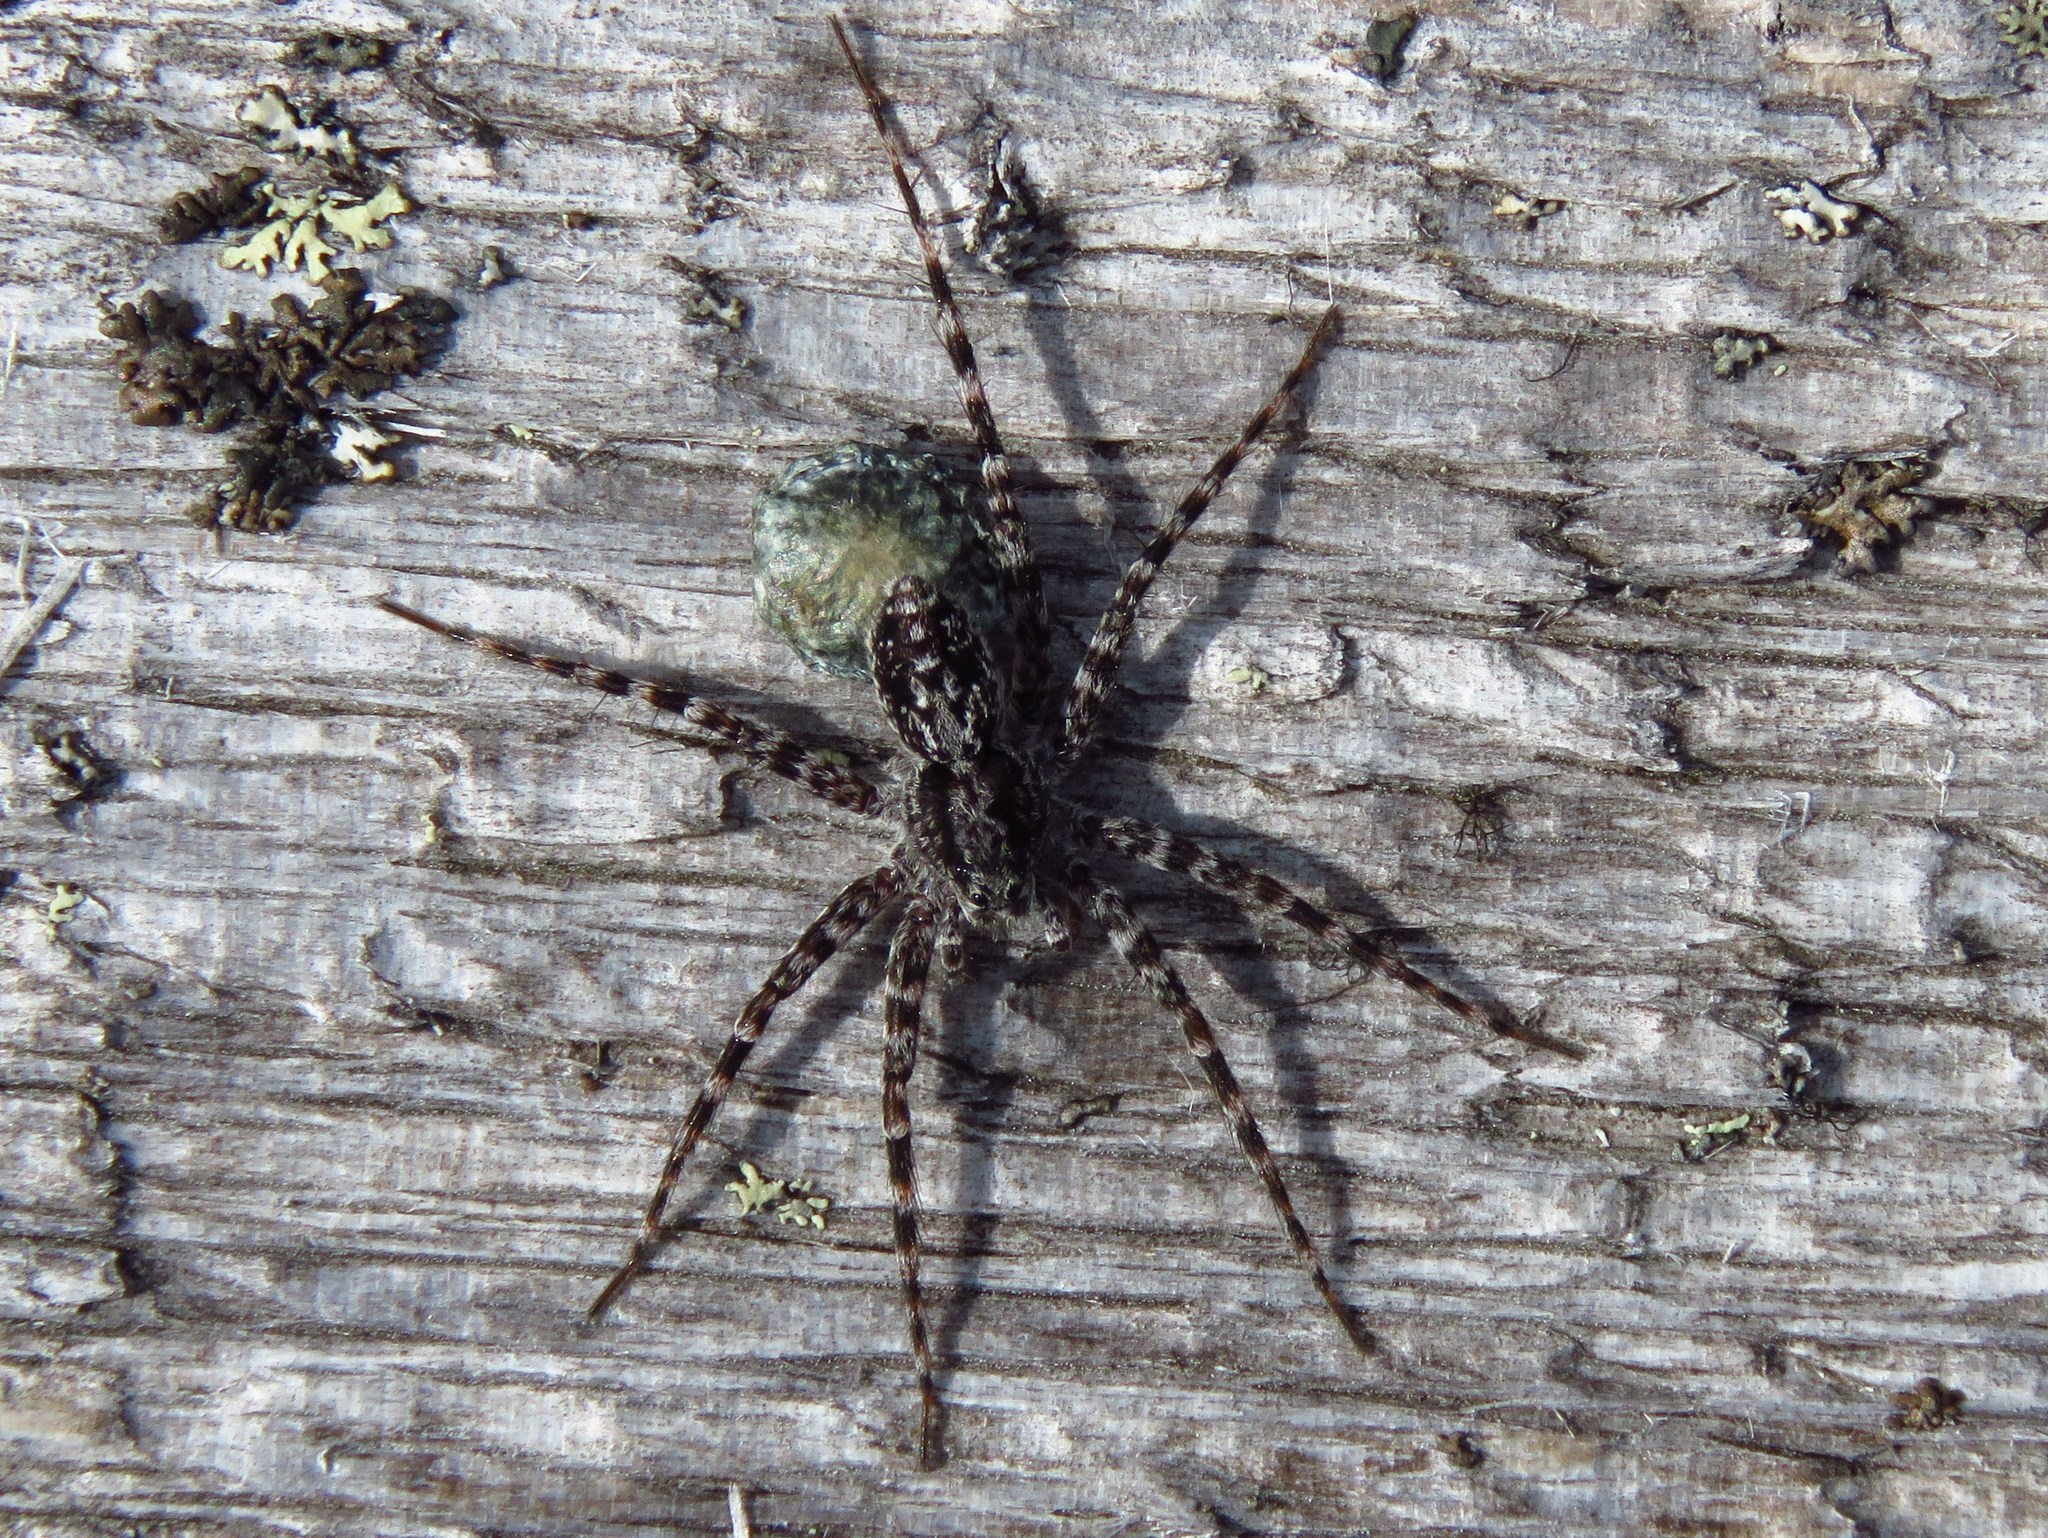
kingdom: Animalia
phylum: Arthropoda
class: Arachnida
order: Araneae
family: Lycosidae
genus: Acantholycosa
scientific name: Acantholycosa lignaria
